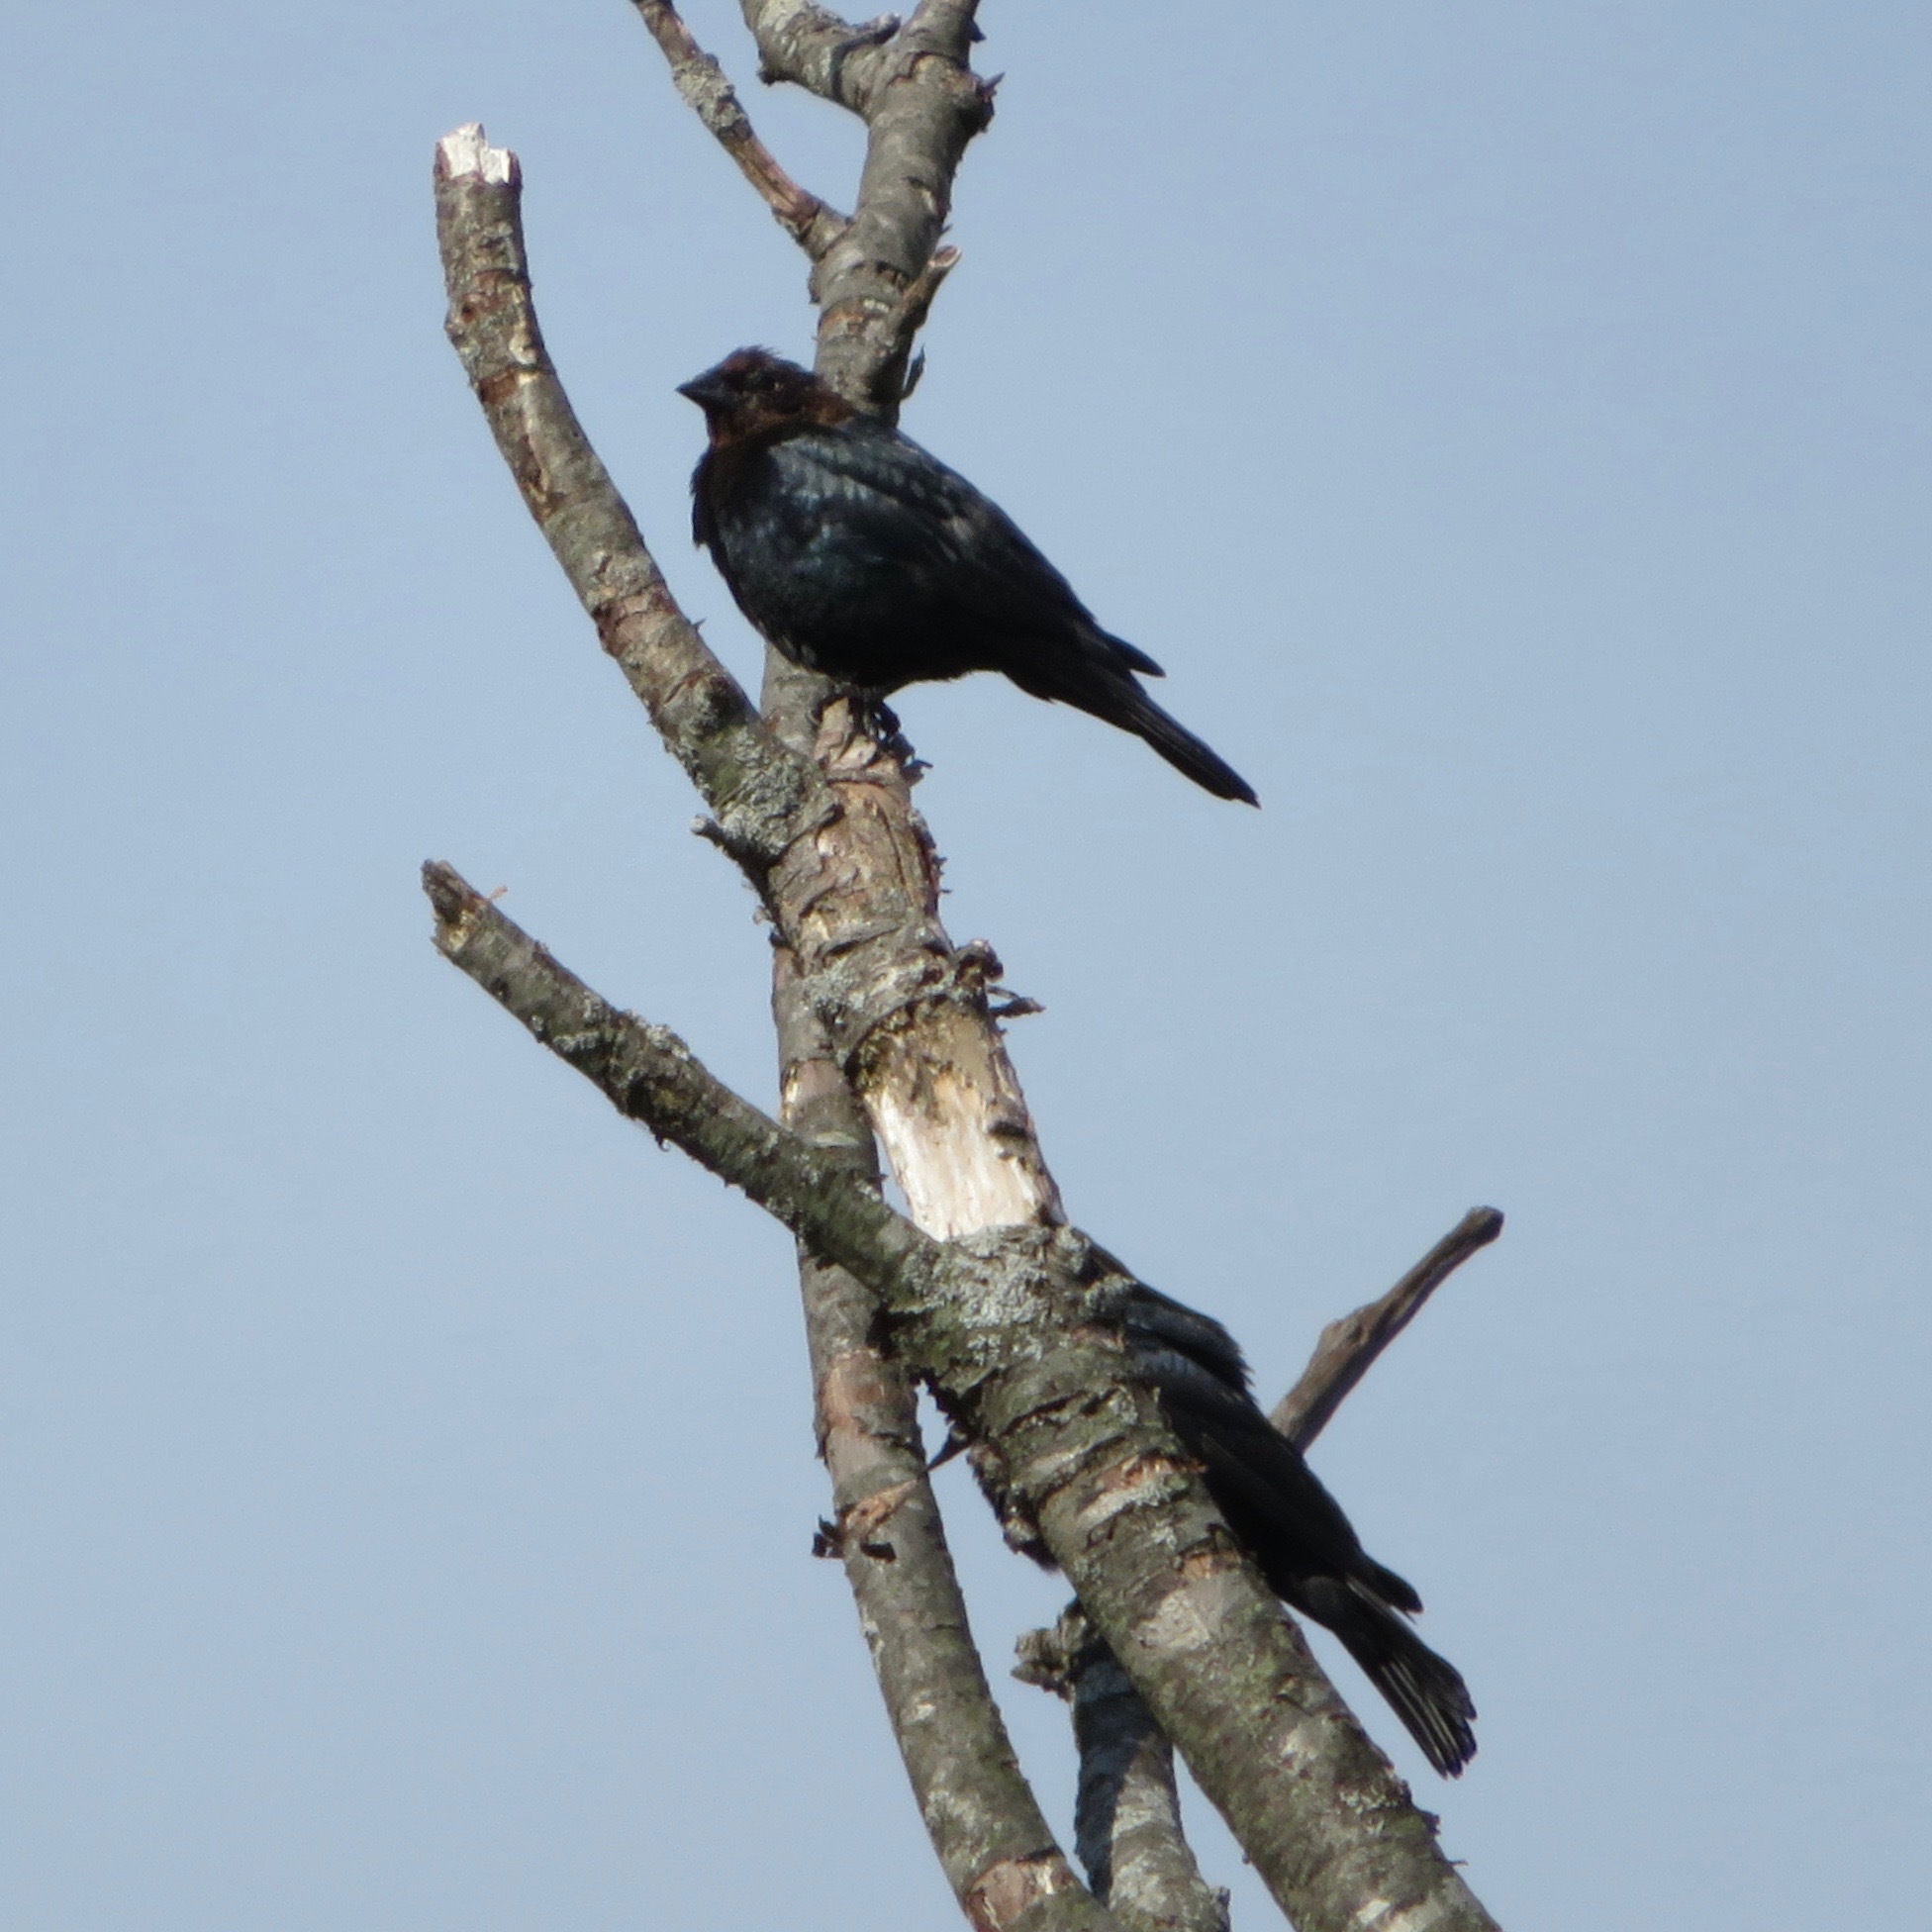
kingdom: Animalia
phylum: Chordata
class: Aves
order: Passeriformes
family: Icteridae
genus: Molothrus
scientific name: Molothrus ater
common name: Brown-headed cowbird
